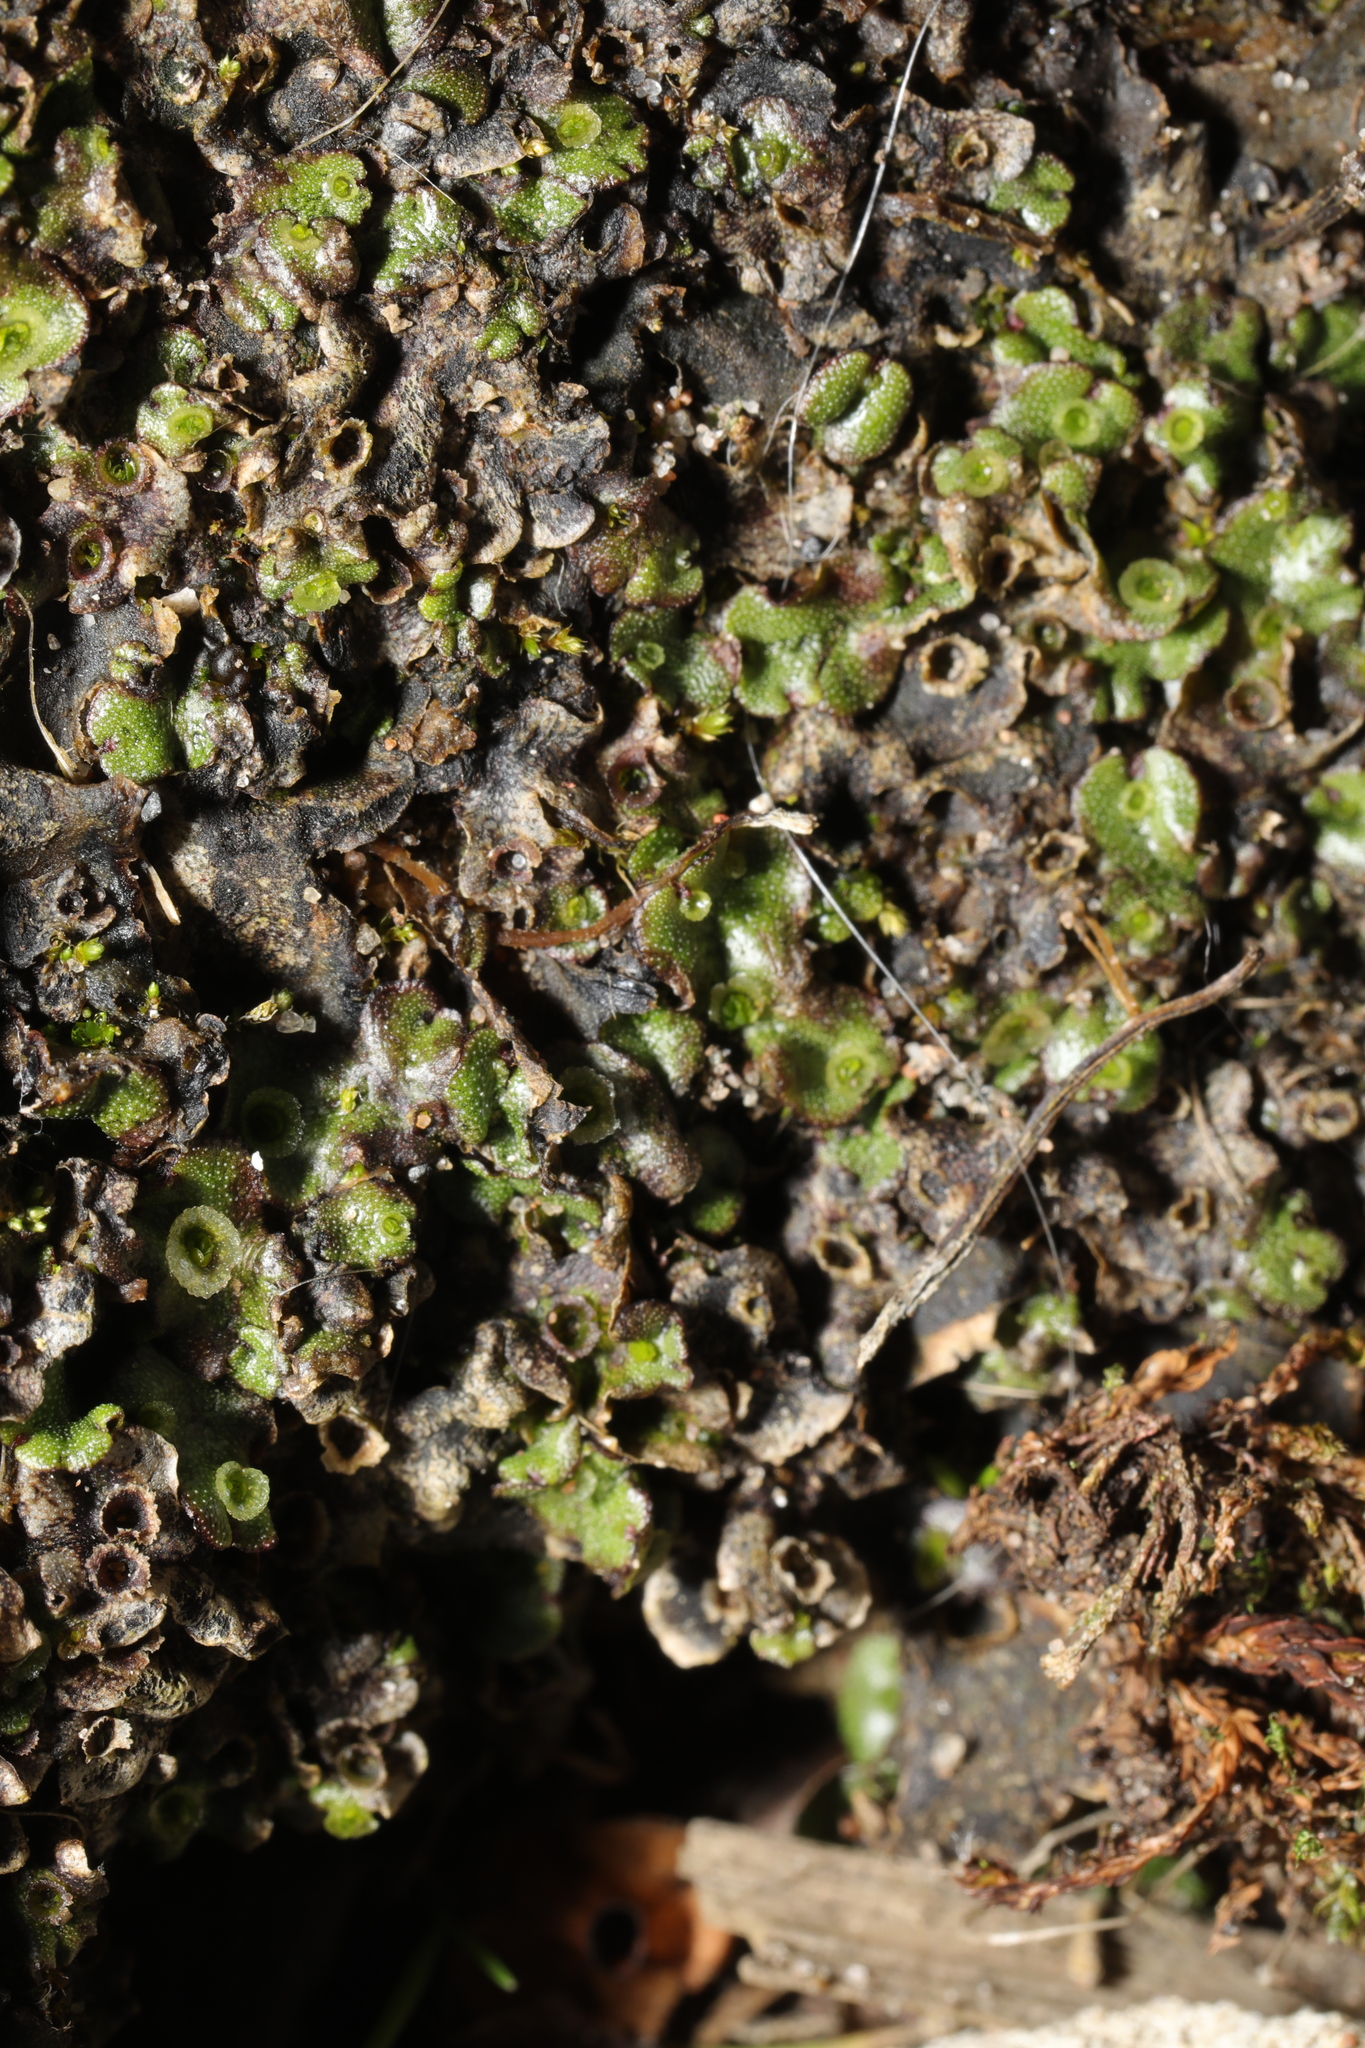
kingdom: Plantae
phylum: Marchantiophyta
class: Marchantiopsida
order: Marchantiales
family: Marchantiaceae
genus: Marchantia
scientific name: Marchantia polymorpha
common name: Common liverwort
